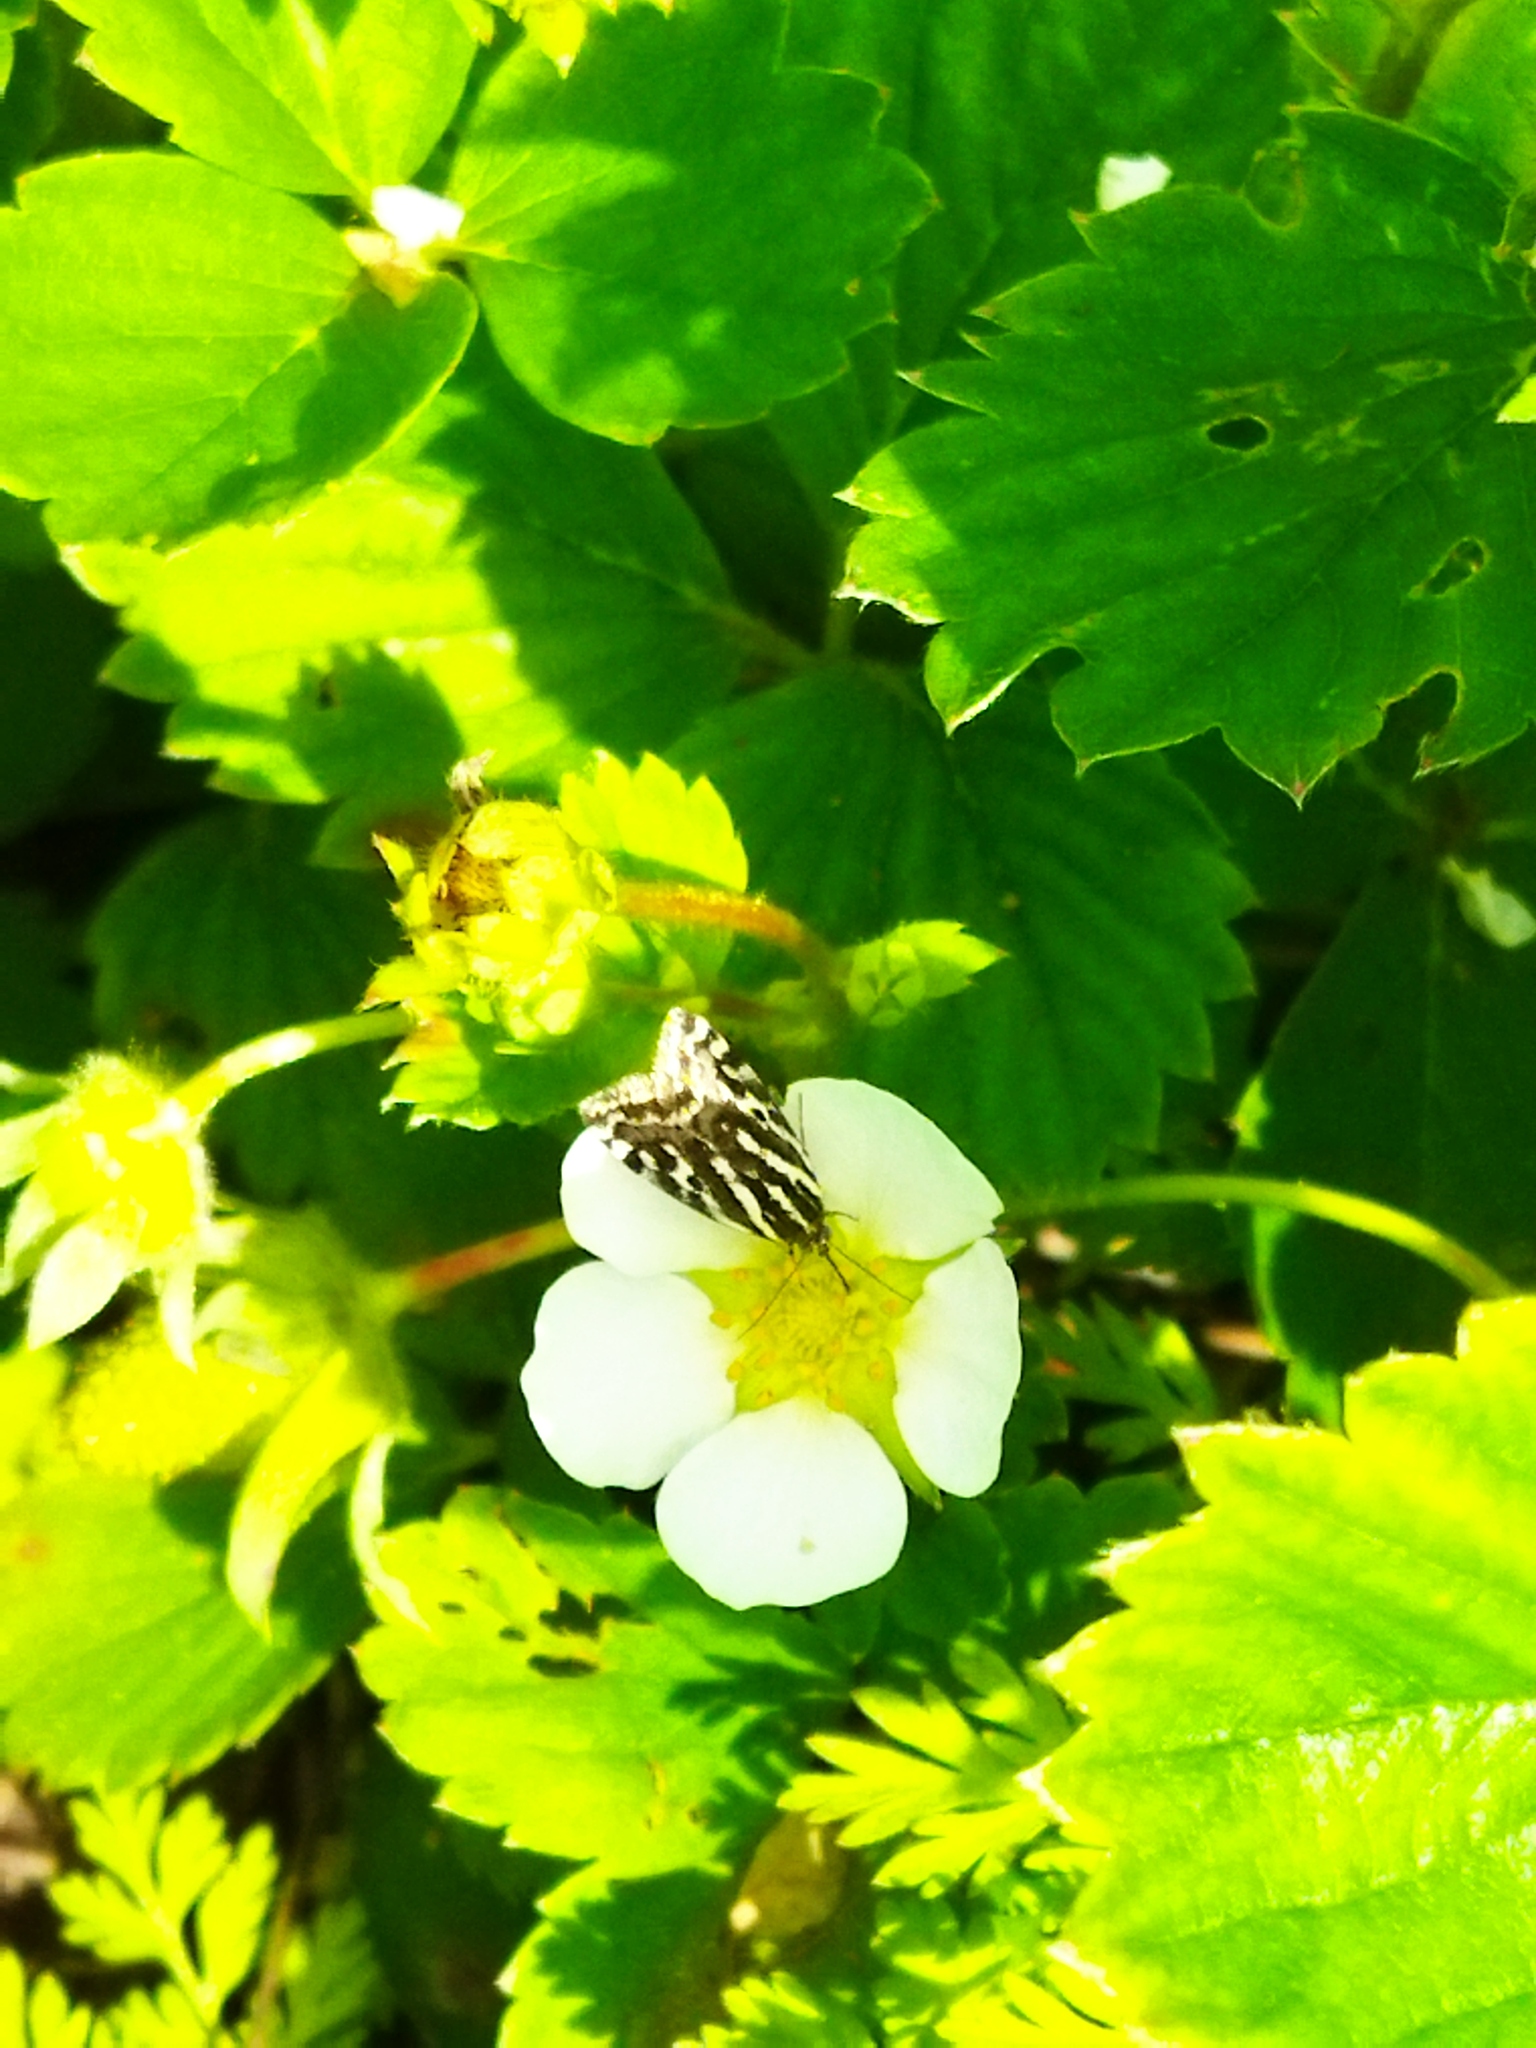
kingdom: Animalia
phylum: Arthropoda
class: Insecta
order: Lepidoptera
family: Noctuidae
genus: Acontia
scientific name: Acontia trabealis
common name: Spotted sulphur
